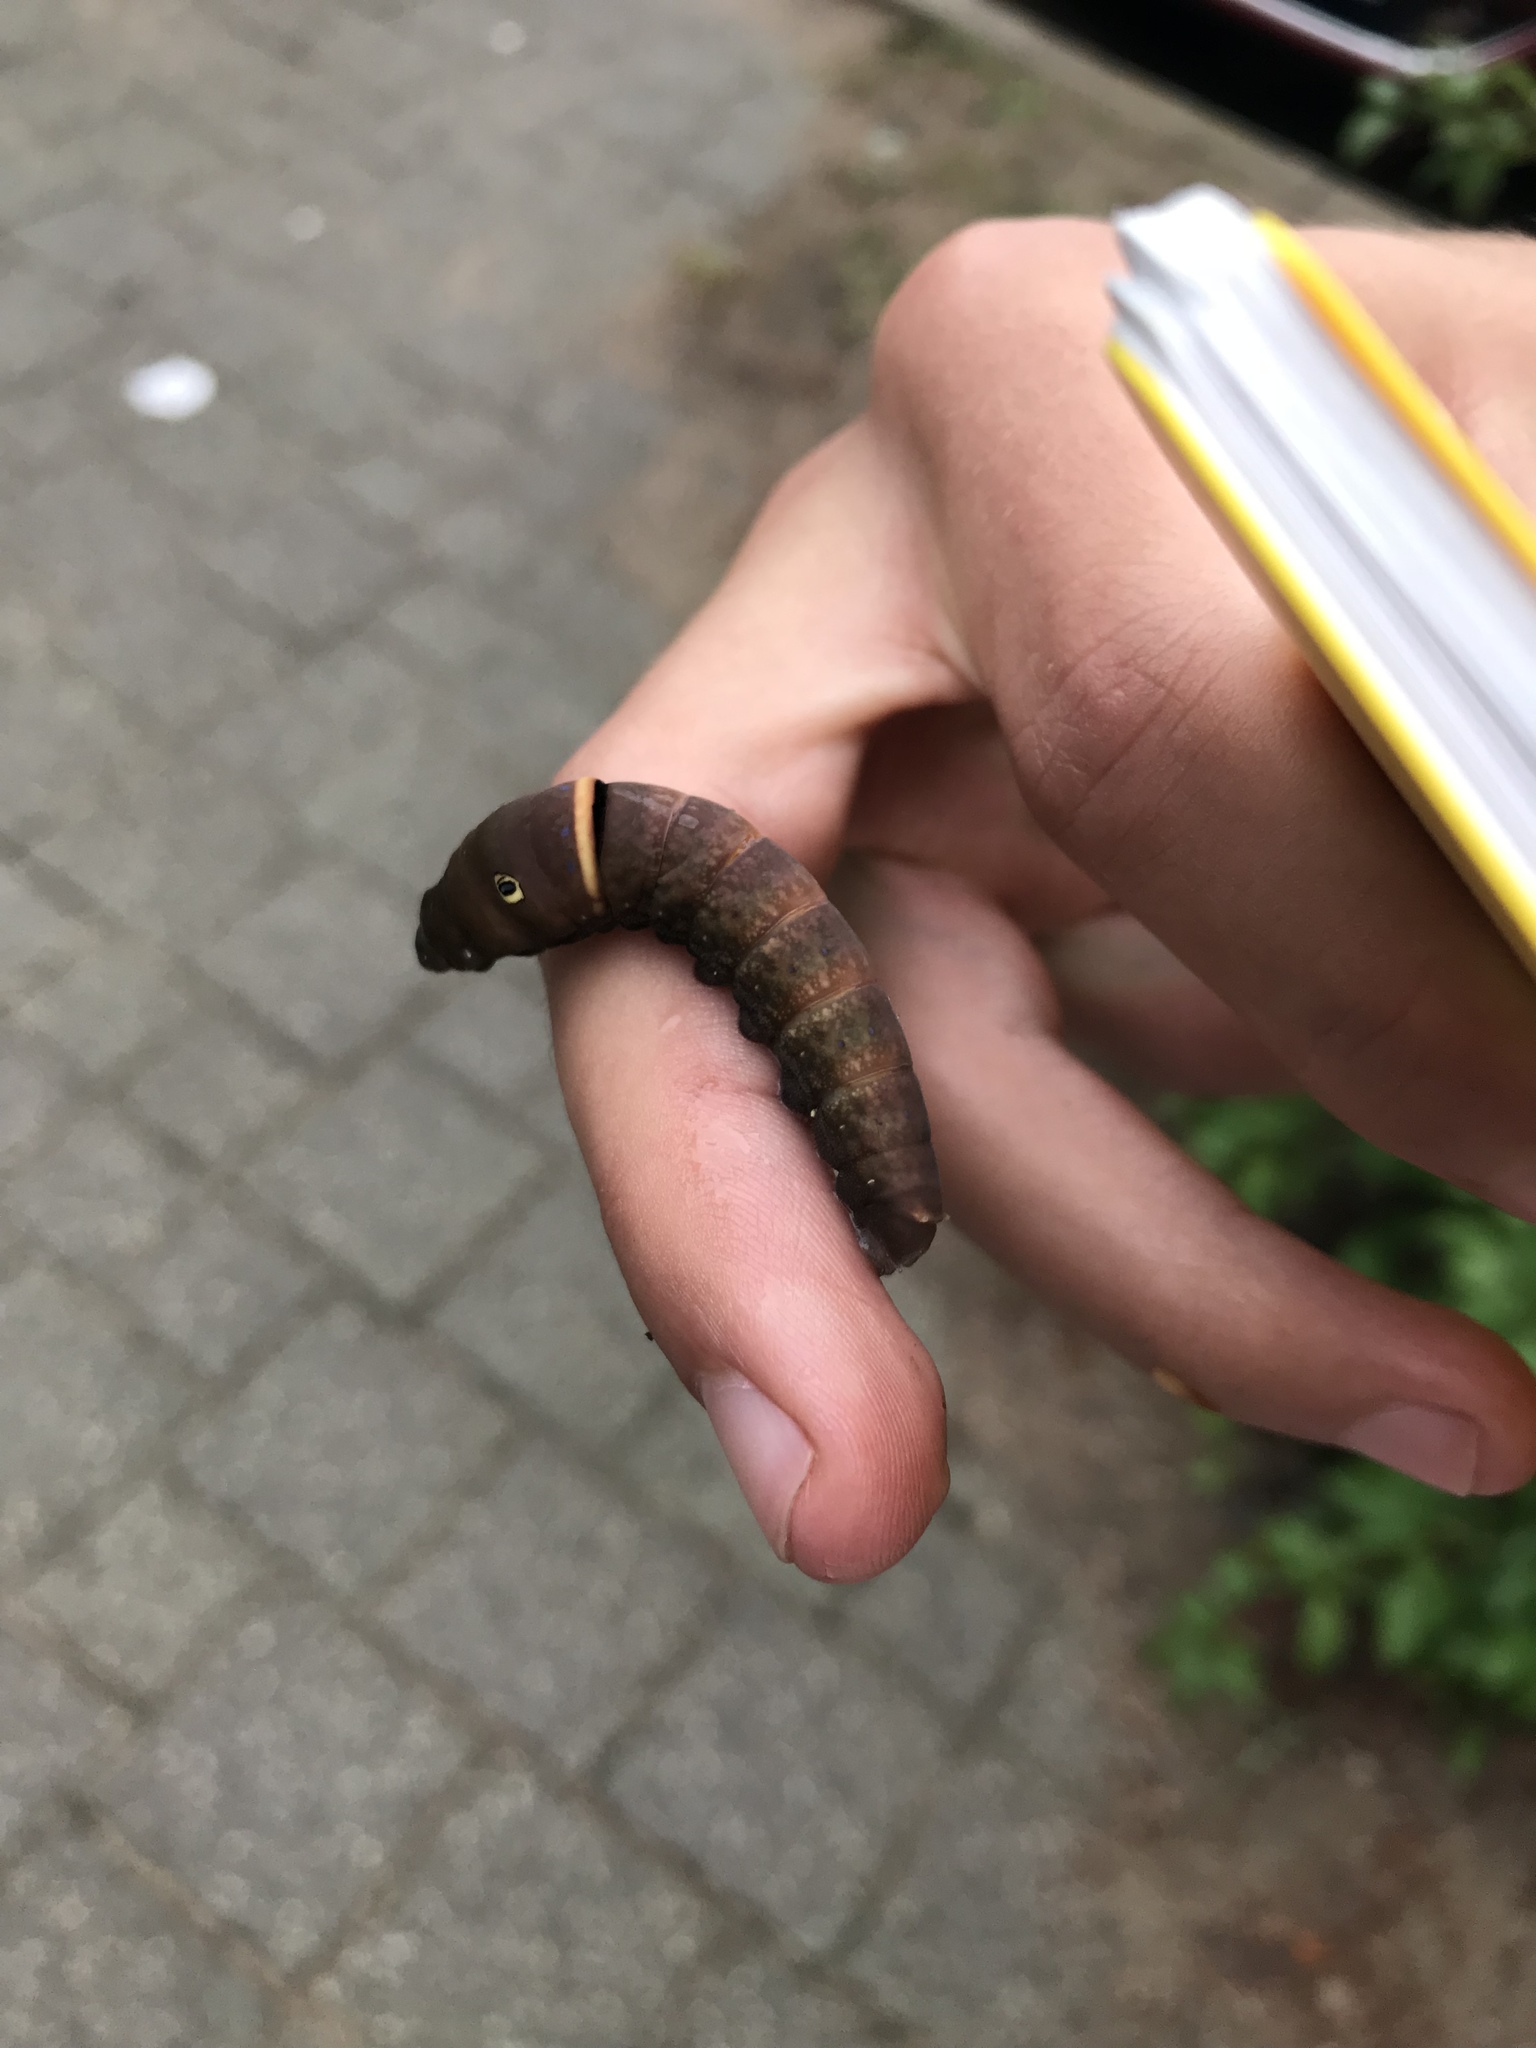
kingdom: Animalia
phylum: Arthropoda
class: Insecta
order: Lepidoptera
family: Papilionidae
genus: Papilio
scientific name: Papilio canadensis
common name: Canadian tiger swallowtail
